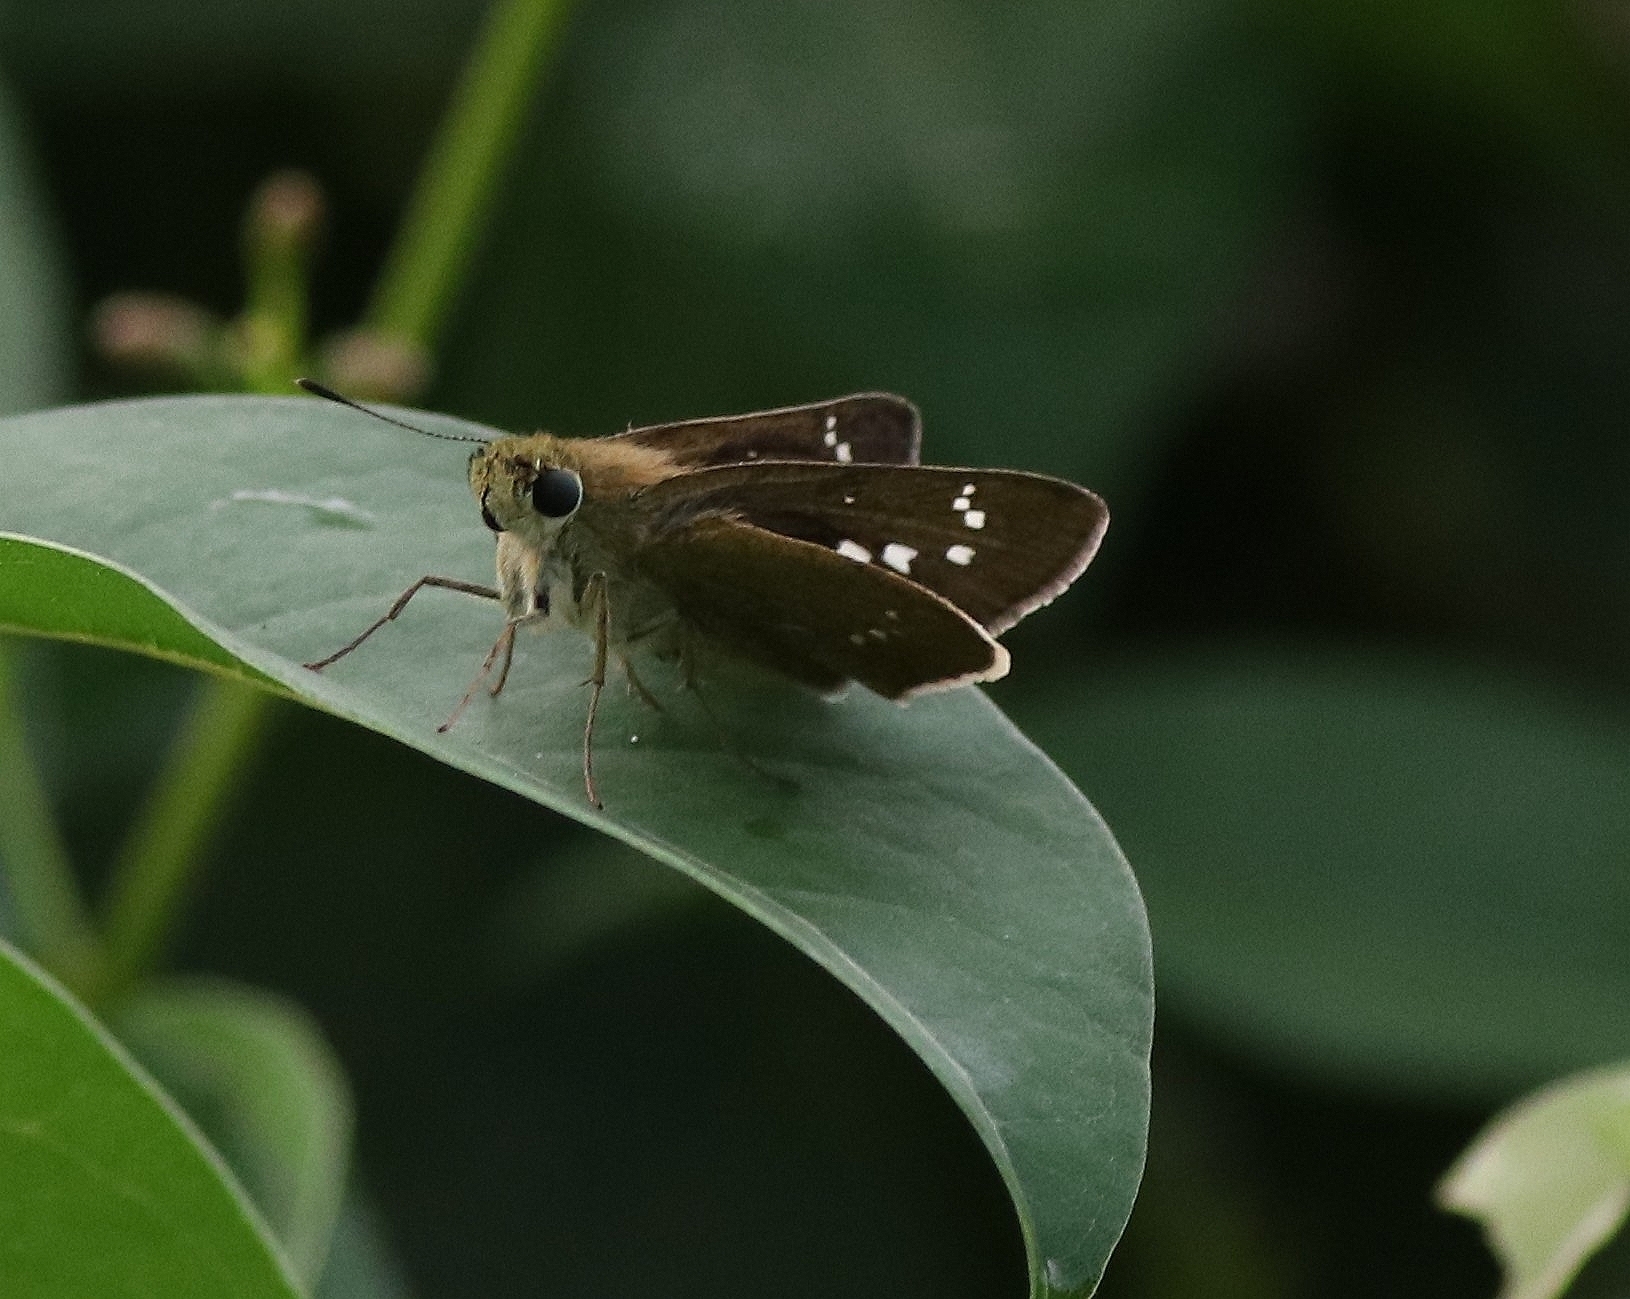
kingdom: Animalia
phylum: Arthropoda
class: Insecta
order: Lepidoptera
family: Hesperiidae
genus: Borbo
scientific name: Borbo cinnara
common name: Formosan swift
